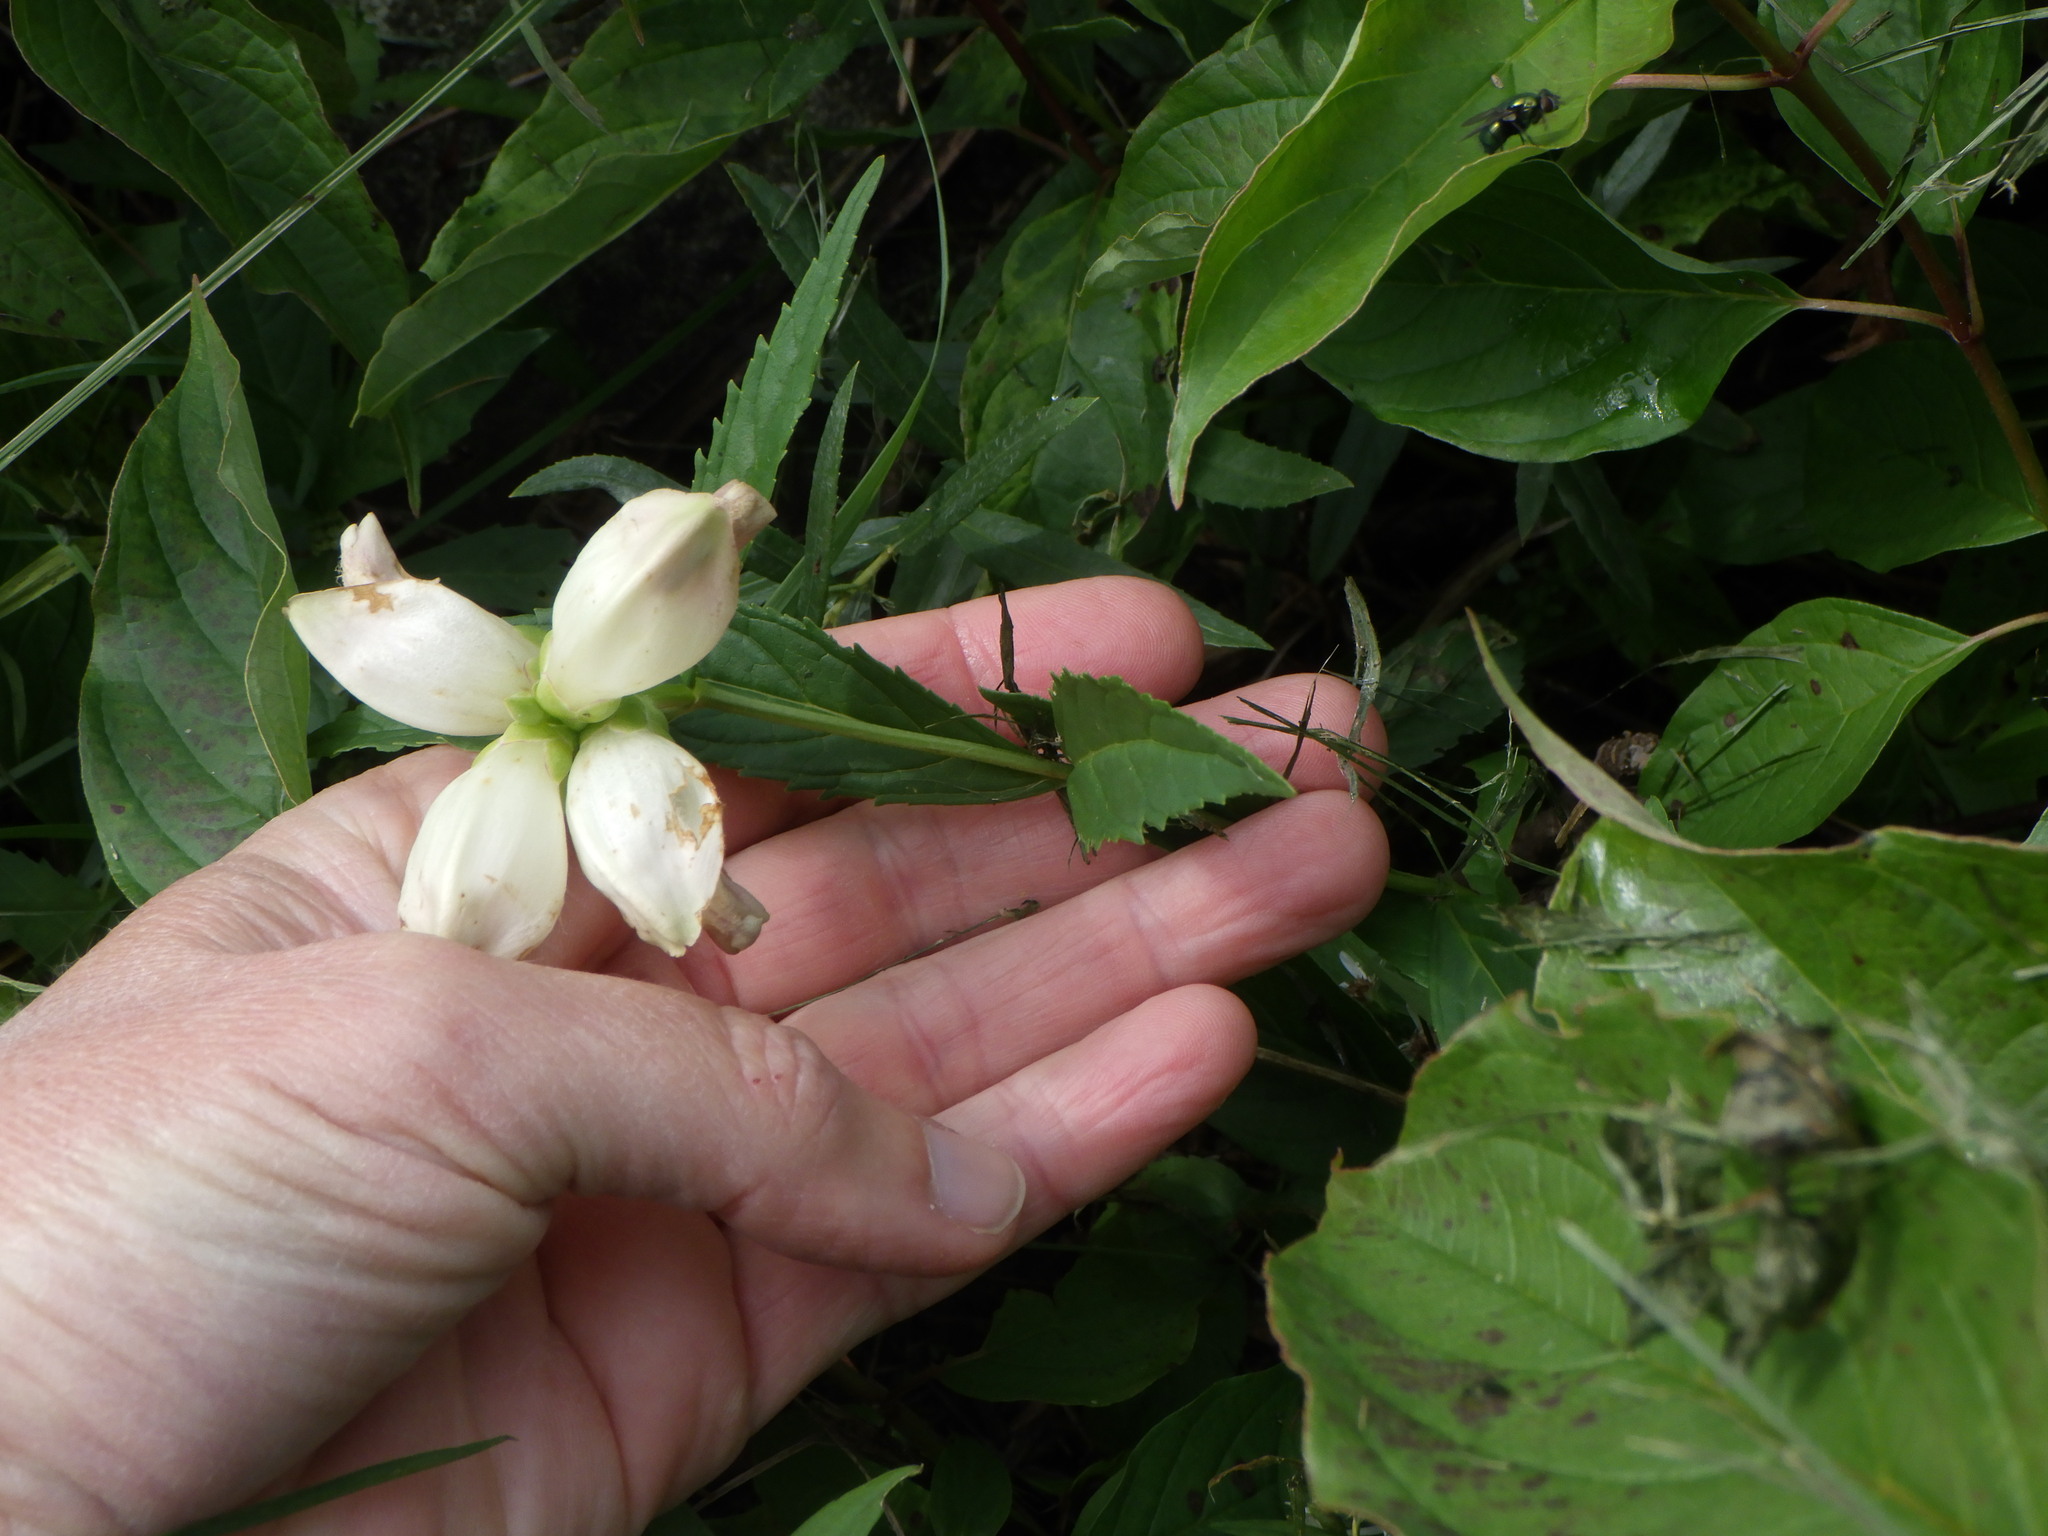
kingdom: Plantae
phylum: Tracheophyta
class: Magnoliopsida
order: Lamiales
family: Plantaginaceae
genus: Chelone
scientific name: Chelone glabra
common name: Snakehead
